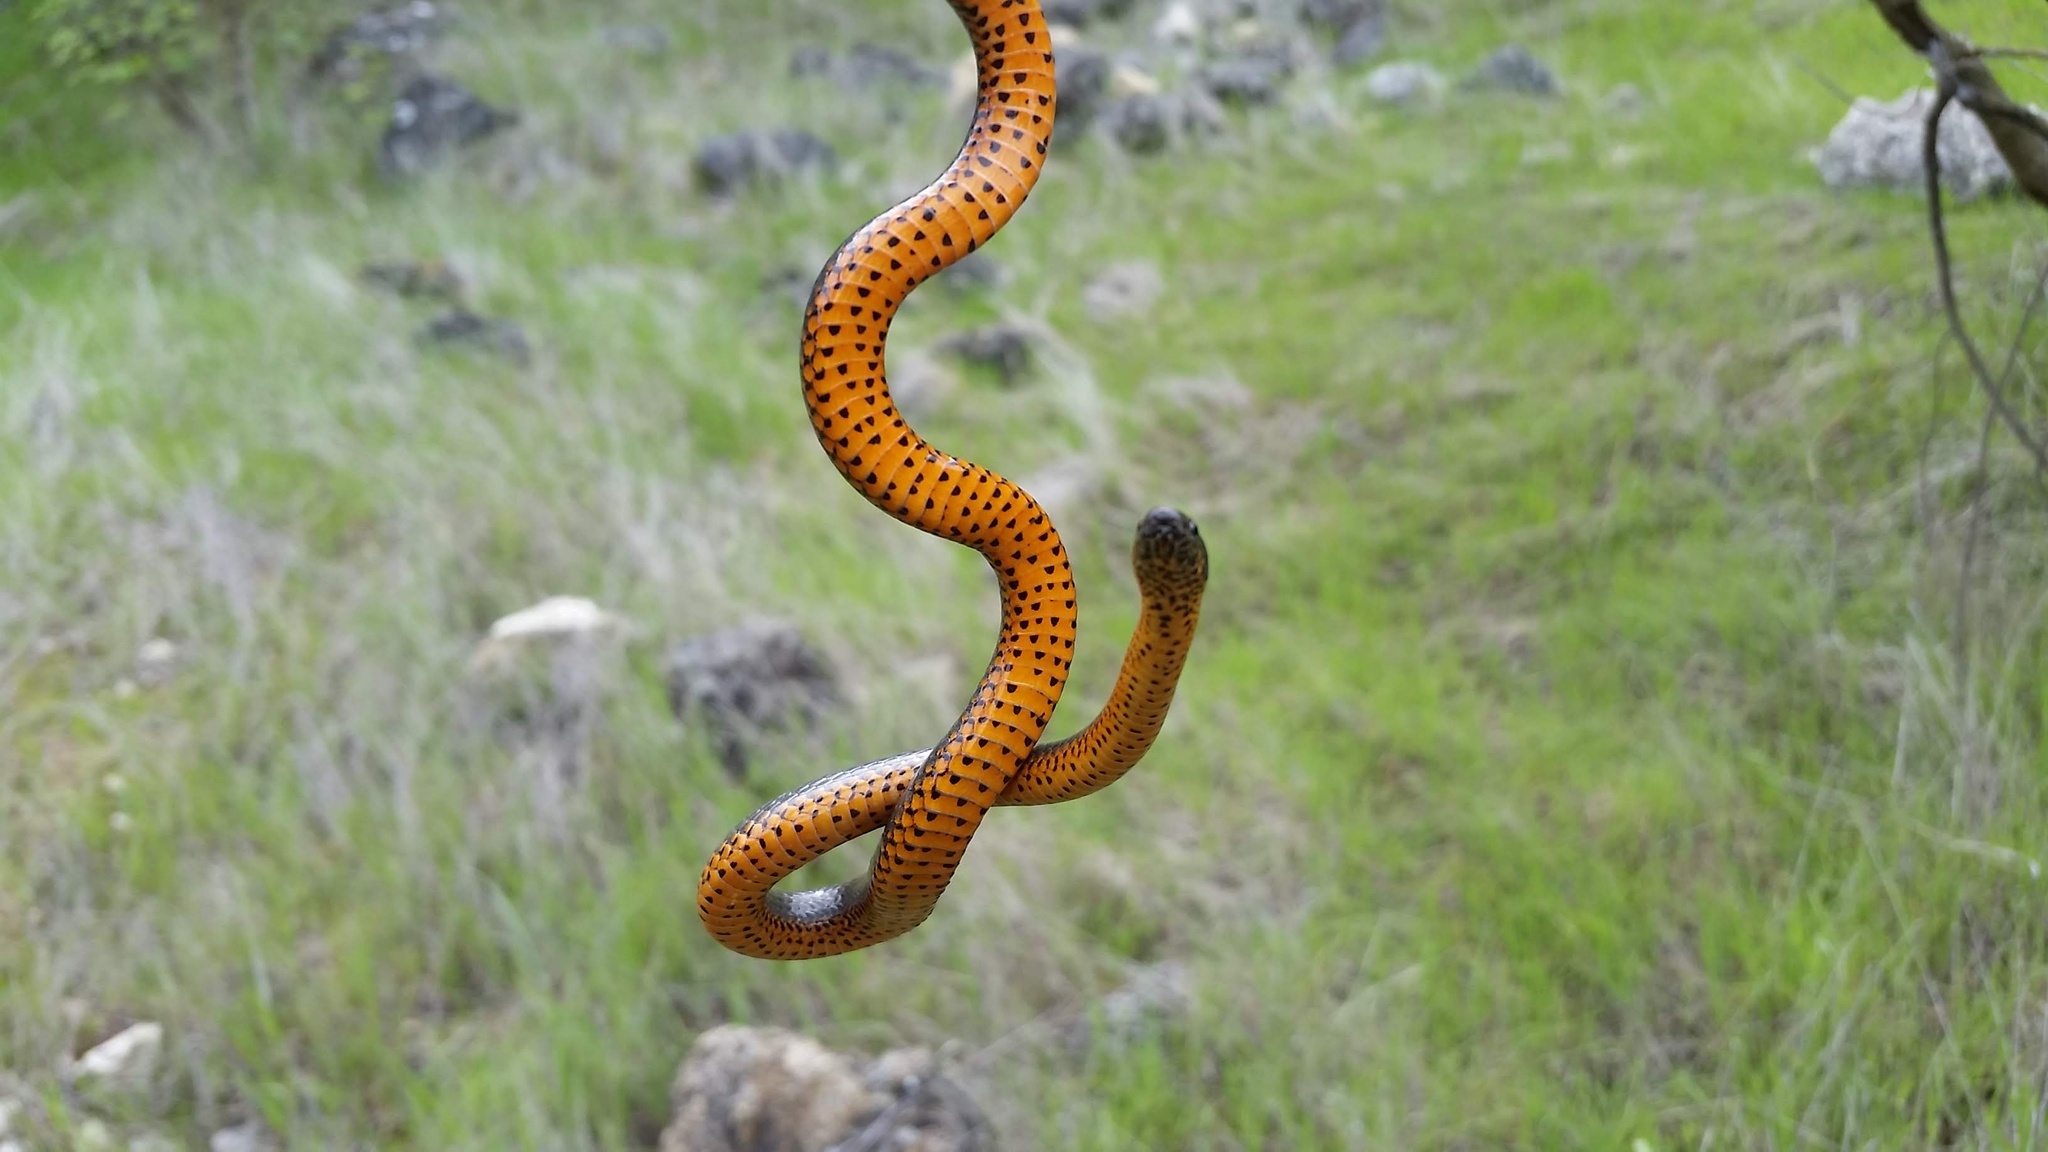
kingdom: Animalia
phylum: Chordata
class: Squamata
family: Colubridae
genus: Diadophis
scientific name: Diadophis punctatus
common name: Ringneck snake
